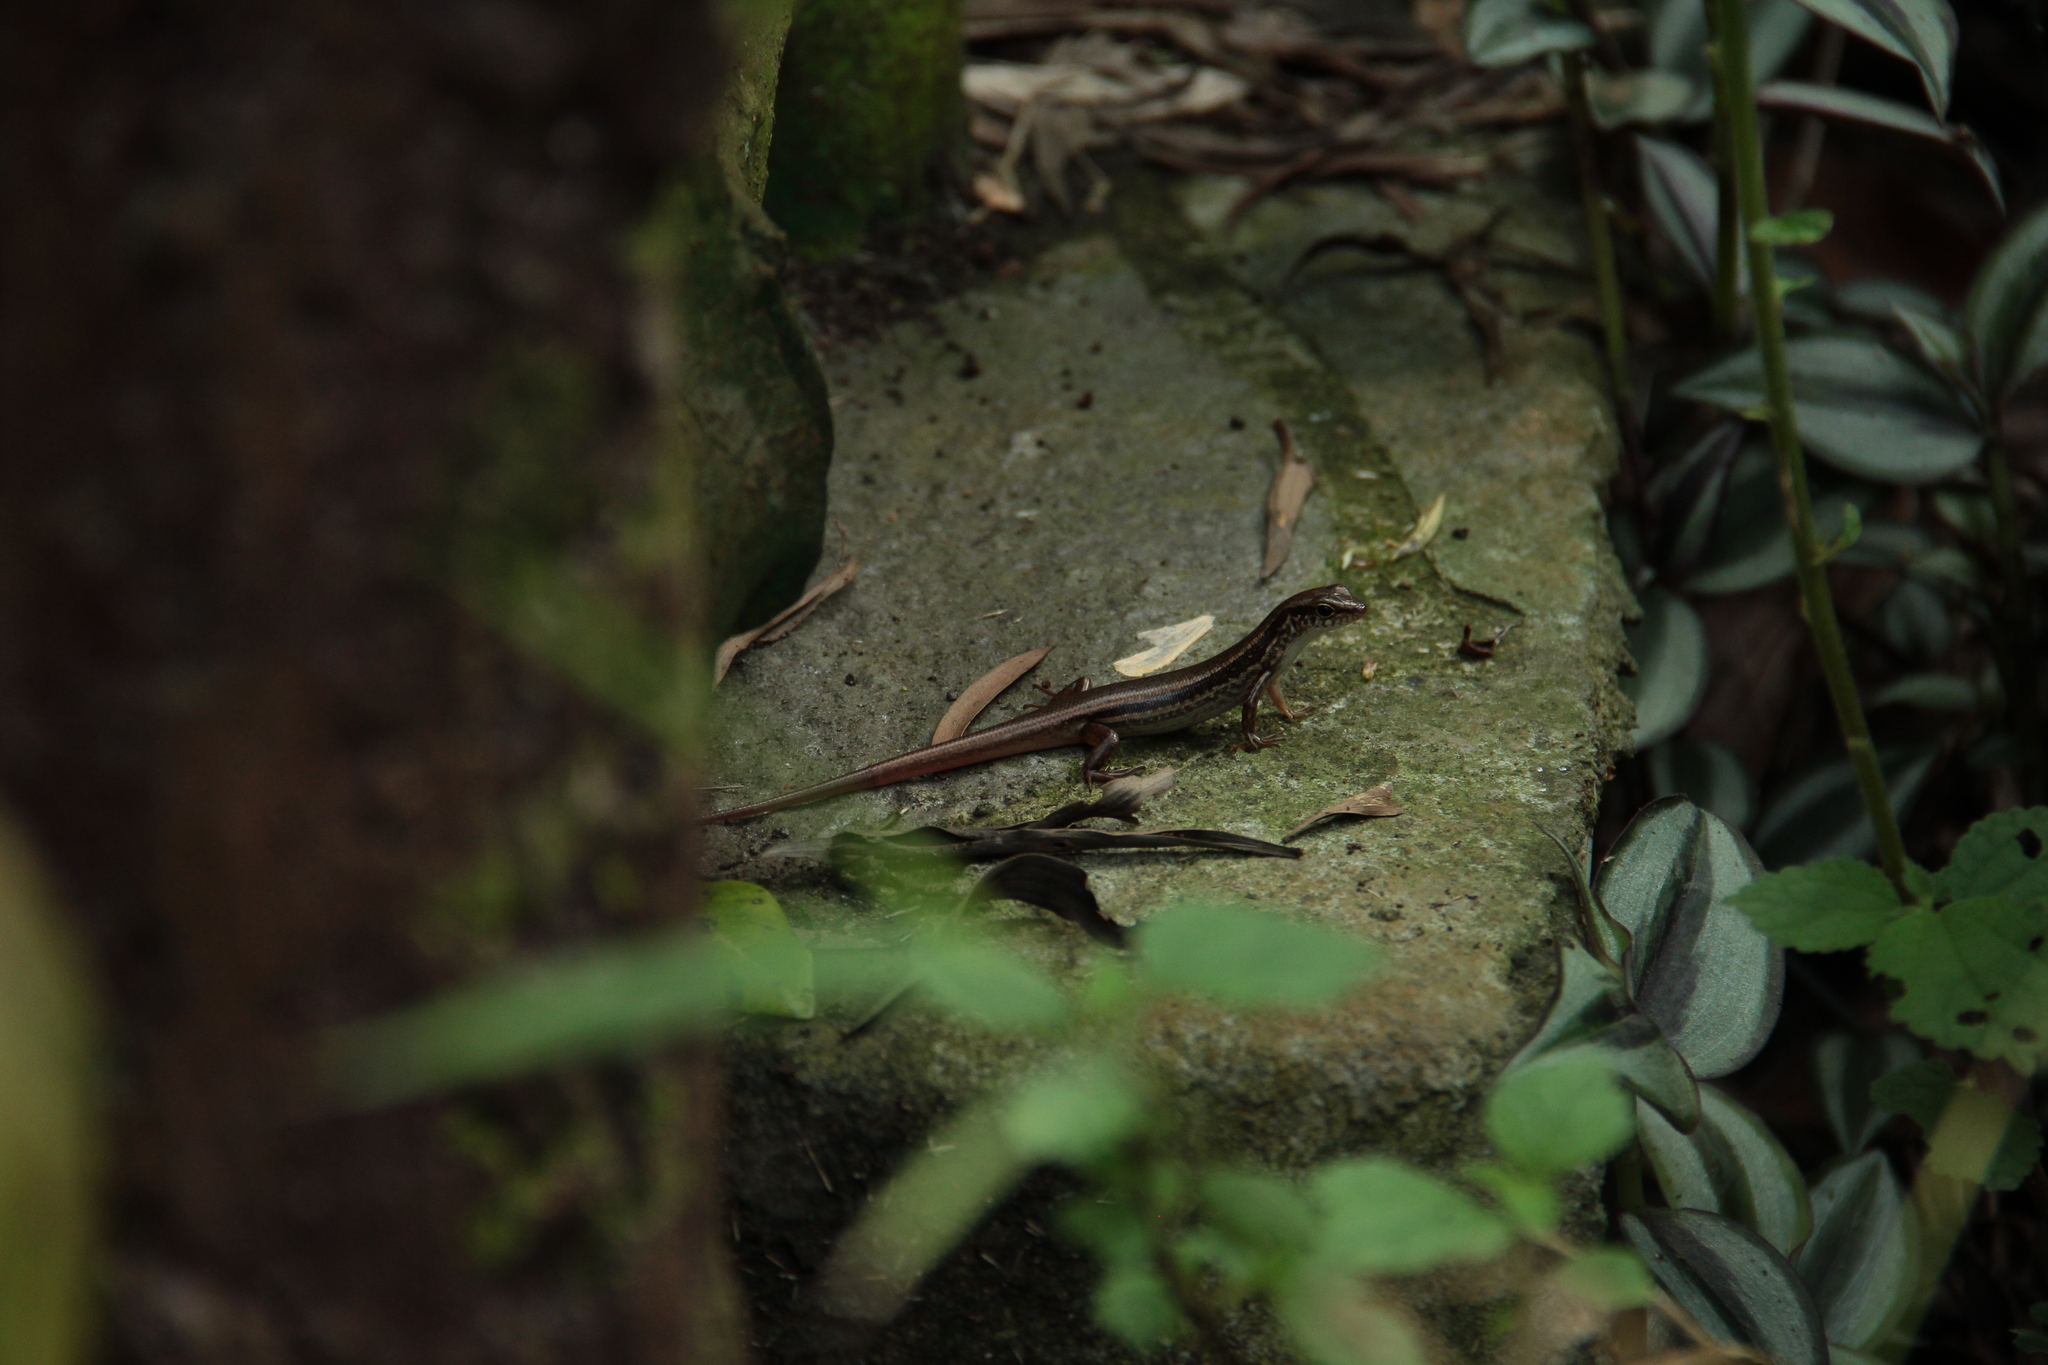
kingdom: Animalia
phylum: Chordata
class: Squamata
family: Scincidae
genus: Sphenomorphus
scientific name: Sphenomorphus indicus
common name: Himalayan forest skink
